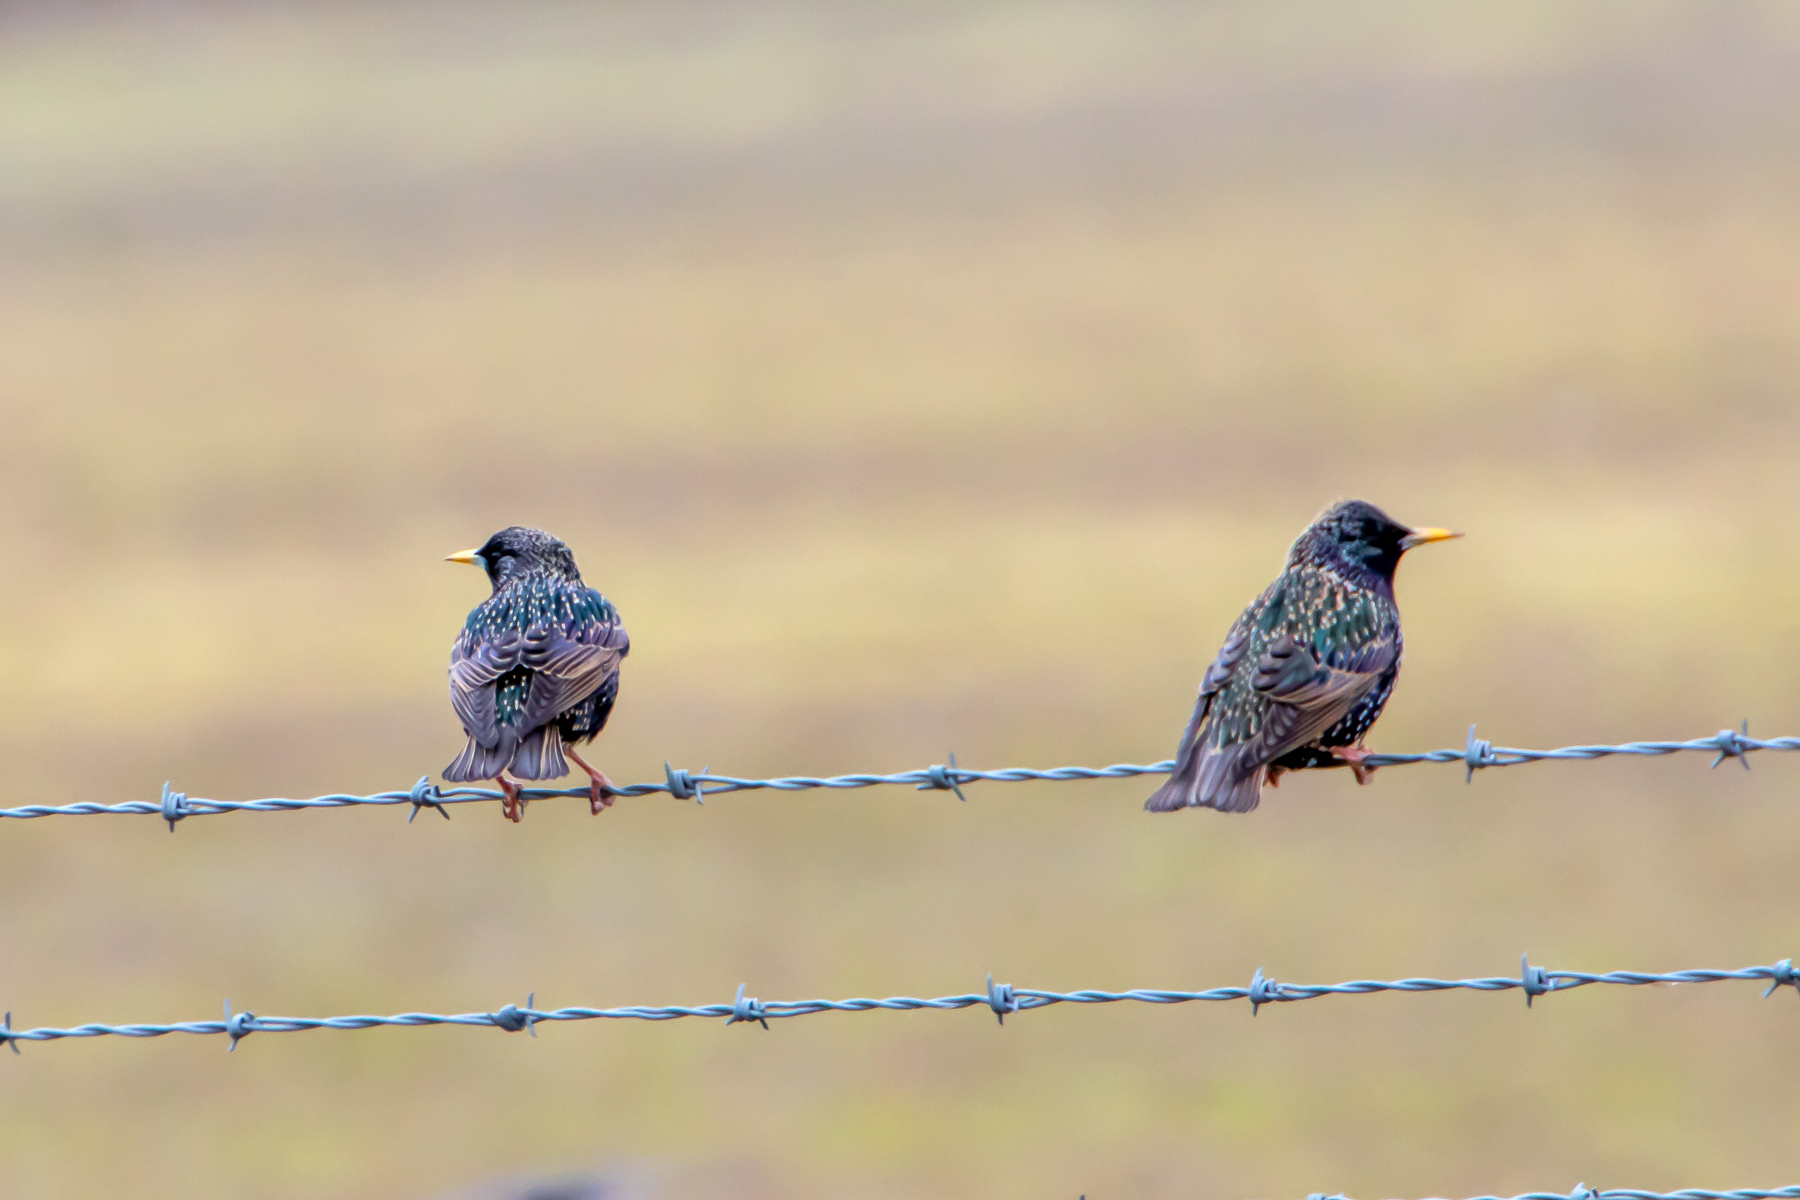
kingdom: Animalia
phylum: Chordata
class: Aves
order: Passeriformes
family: Sturnidae
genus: Sturnus
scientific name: Sturnus vulgaris
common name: Common starling
